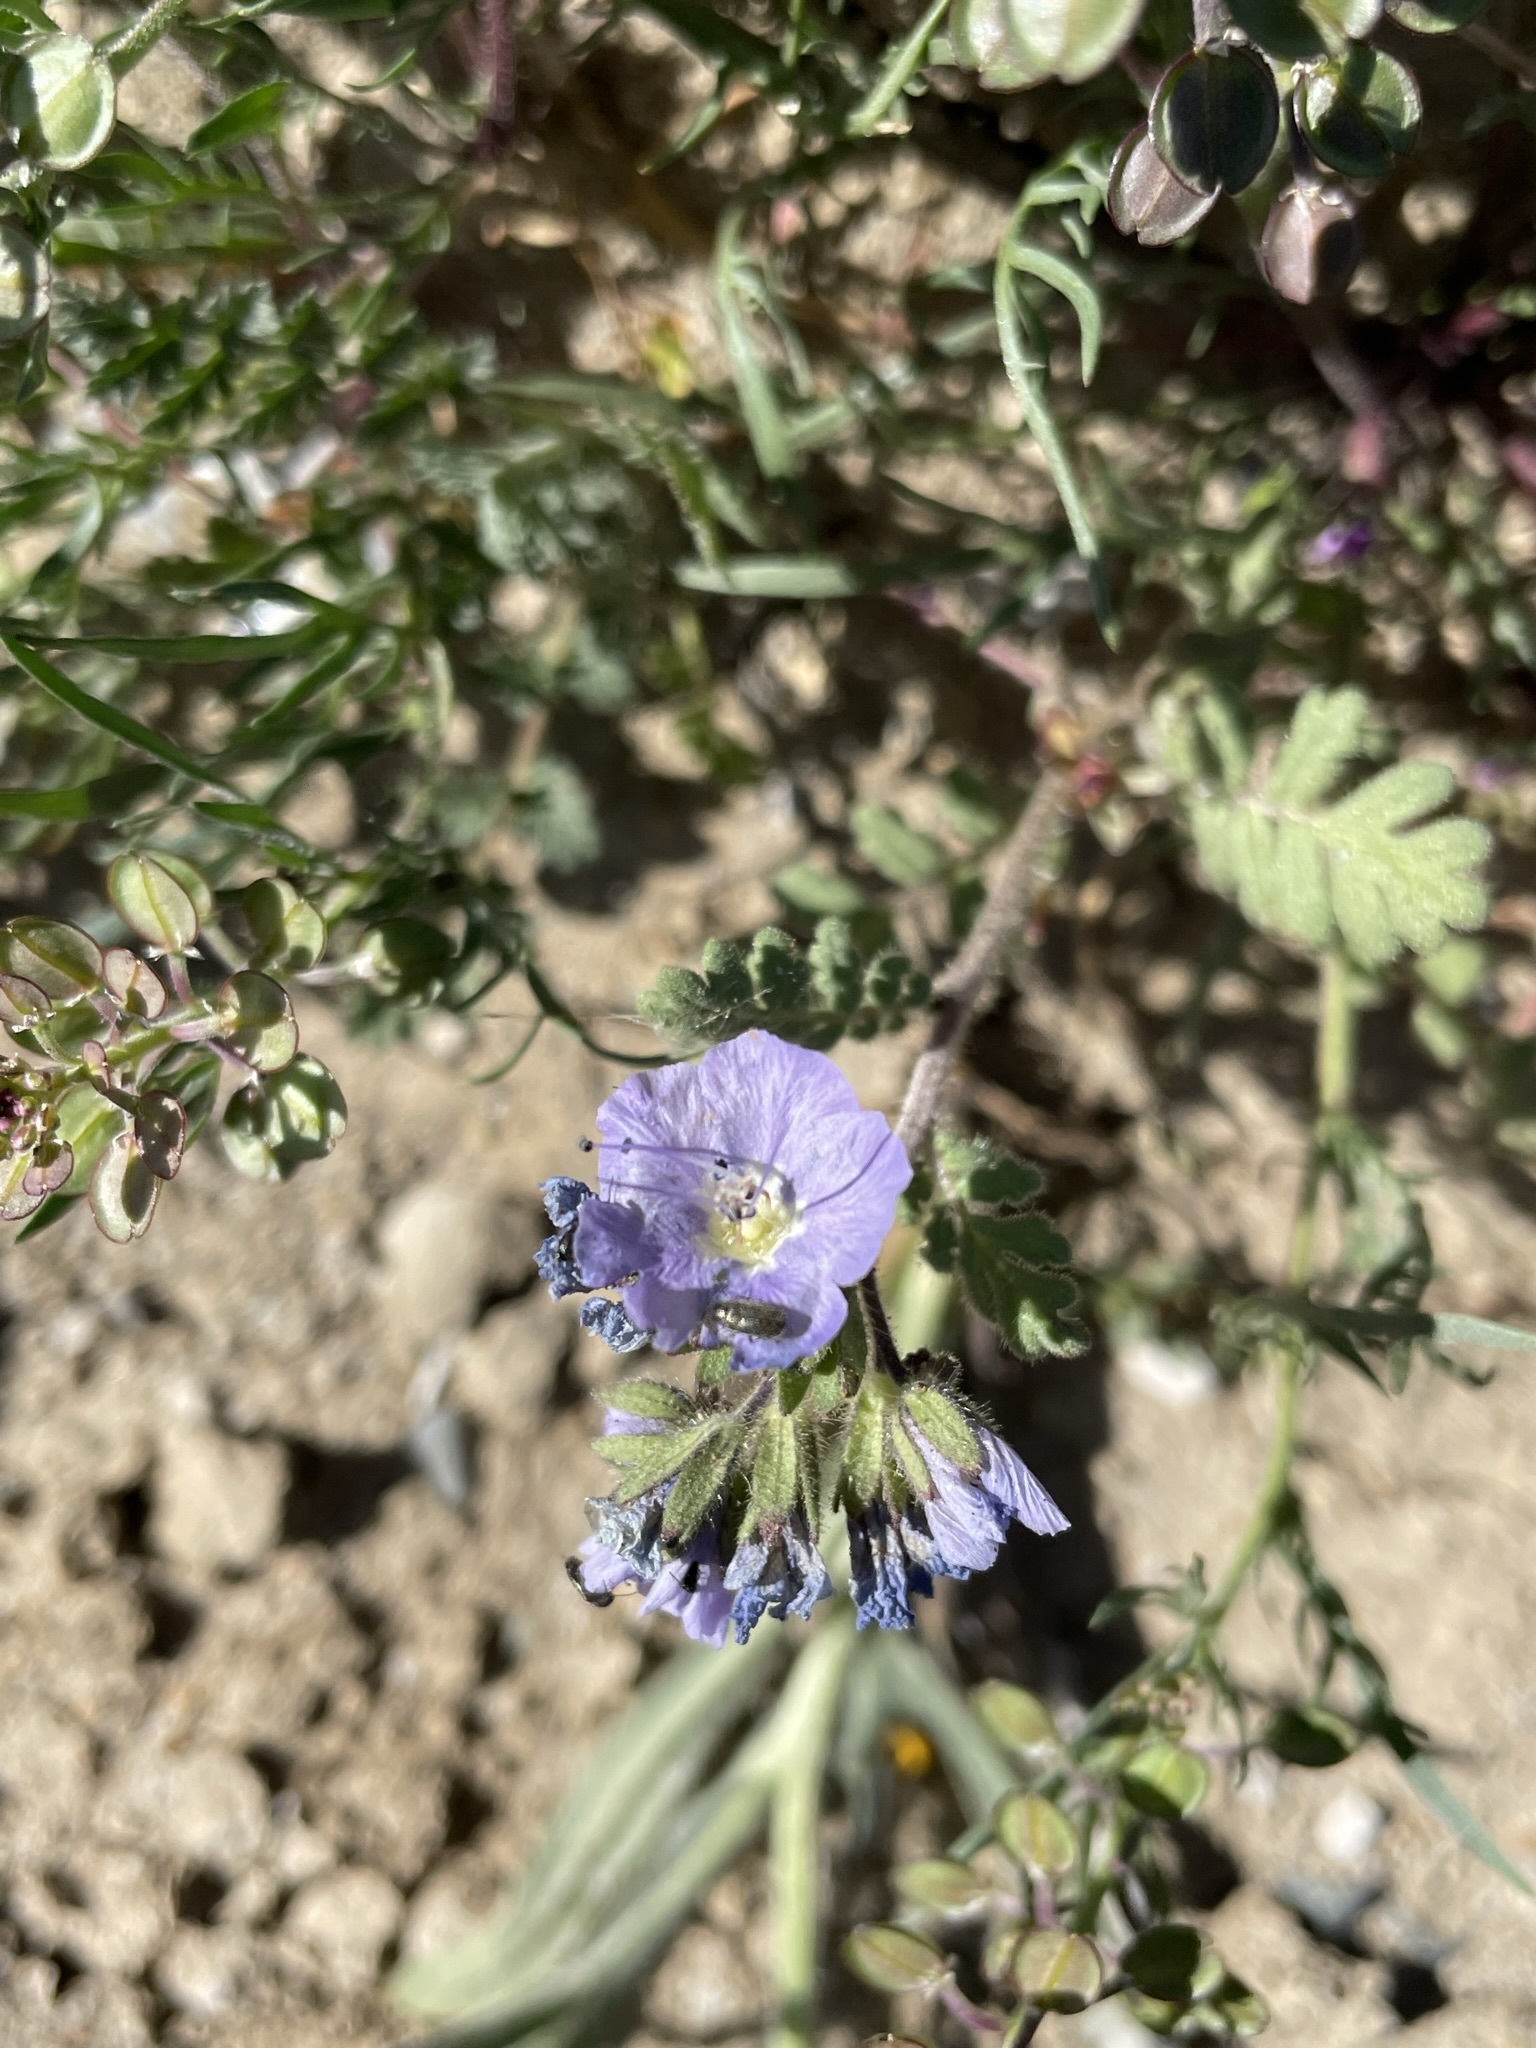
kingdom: Plantae
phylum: Tracheophyta
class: Magnoliopsida
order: Boraginales
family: Hydrophyllaceae
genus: Phacelia
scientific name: Phacelia ciliata
